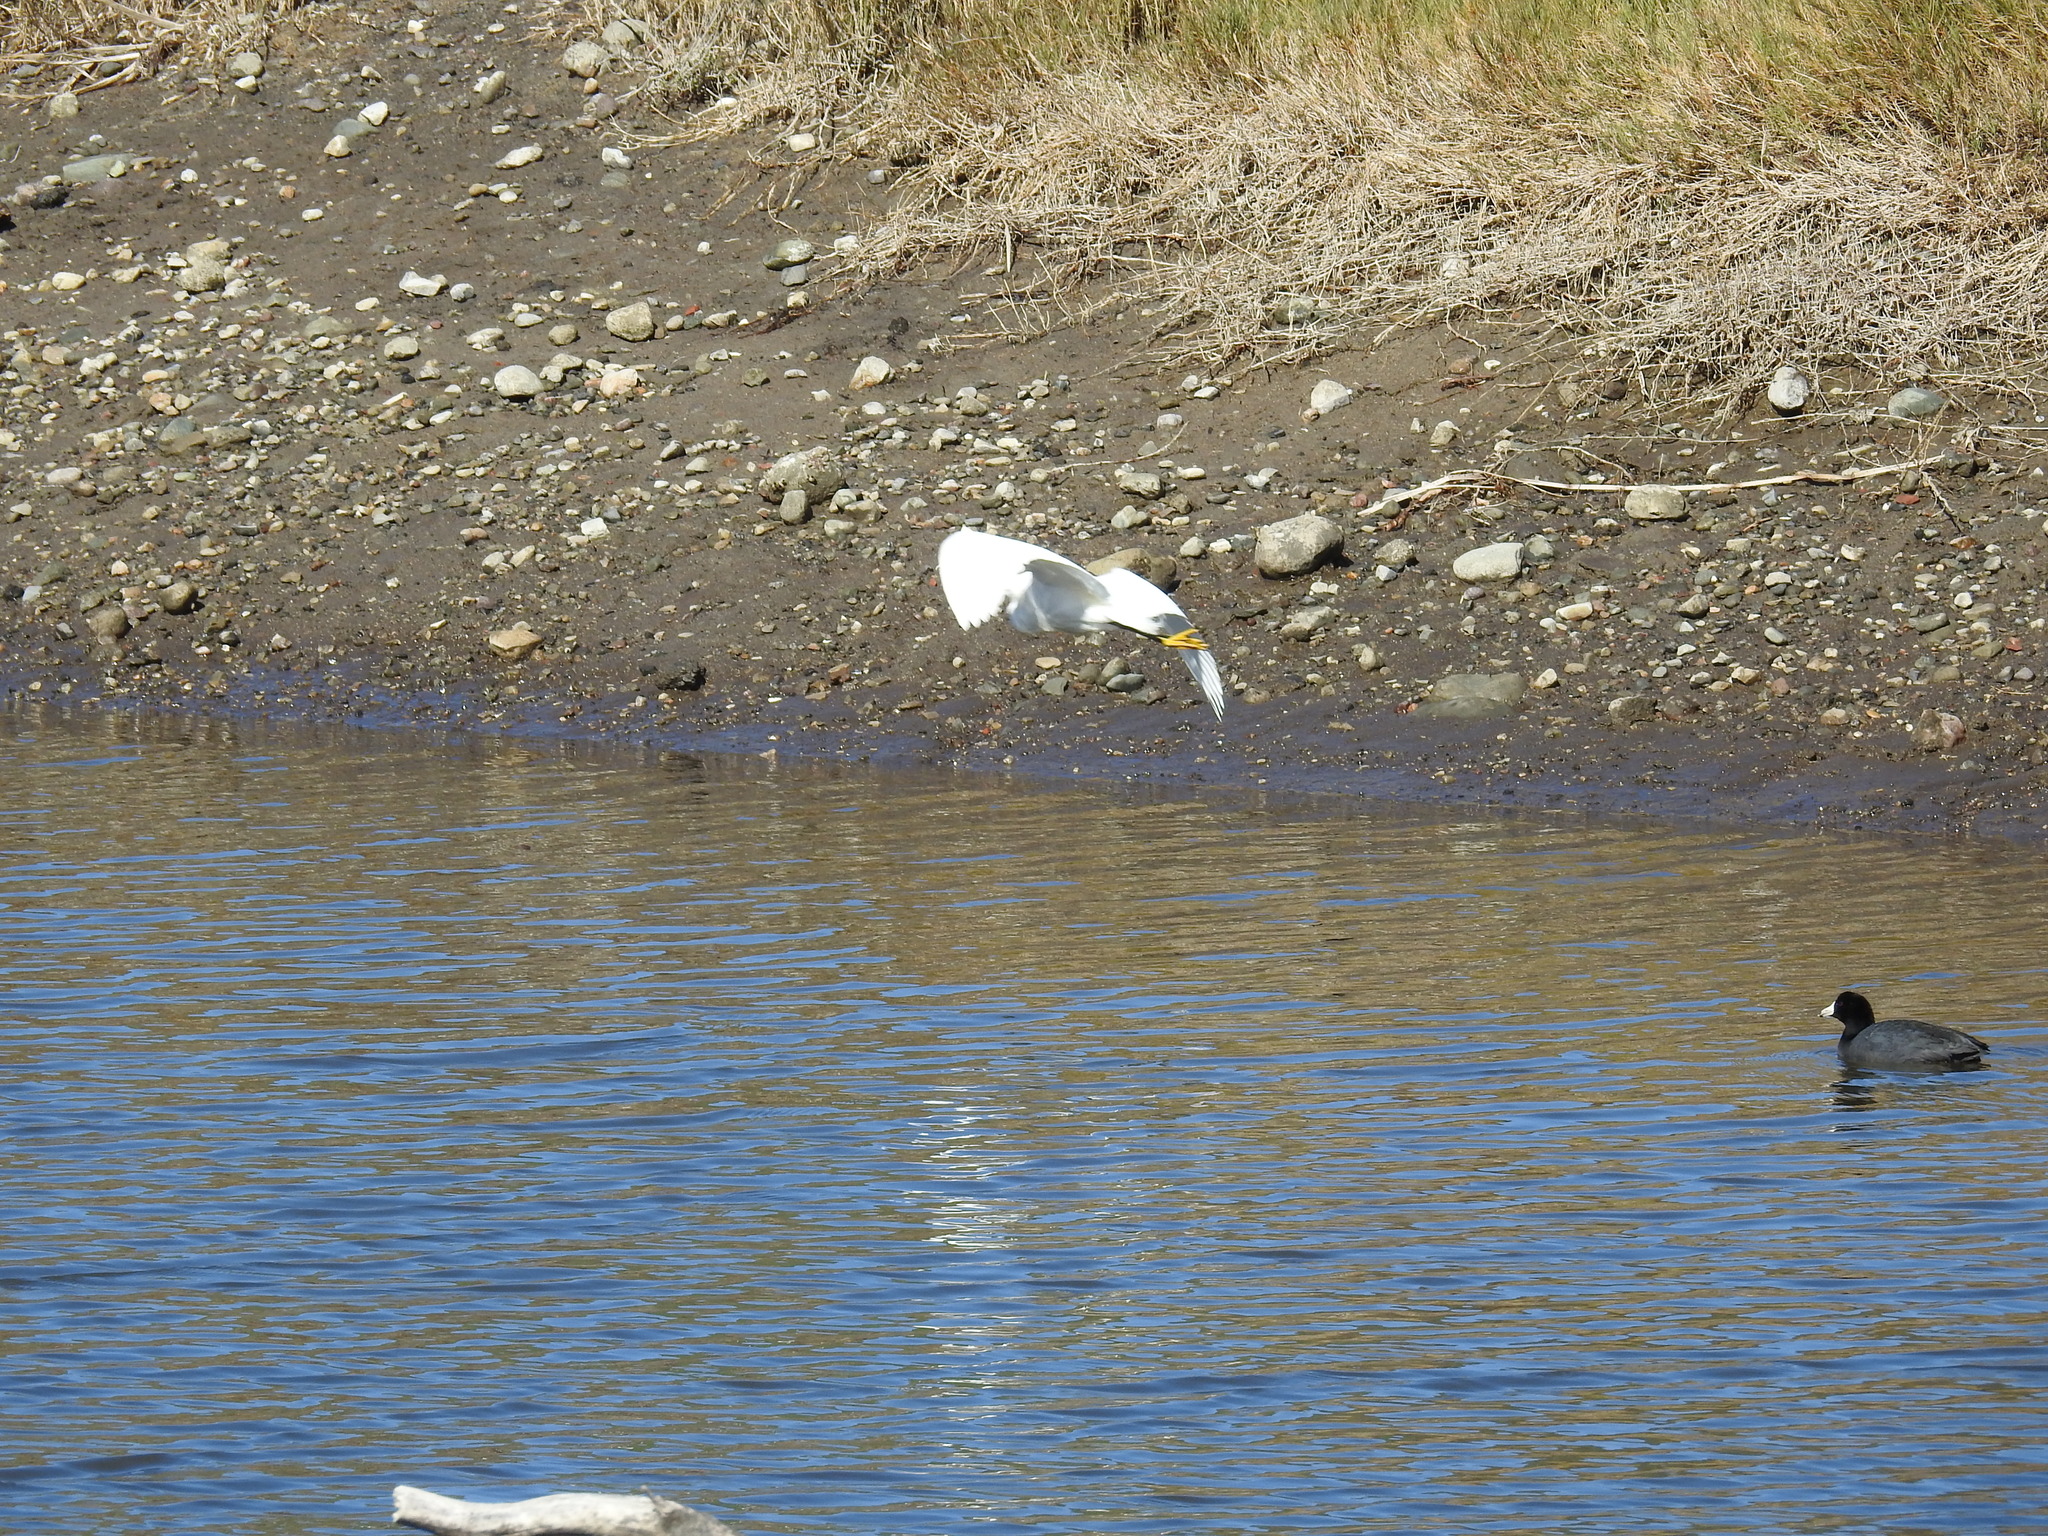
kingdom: Animalia
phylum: Chordata
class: Aves
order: Pelecaniformes
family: Ardeidae
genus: Egretta
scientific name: Egretta thula
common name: Snowy egret
